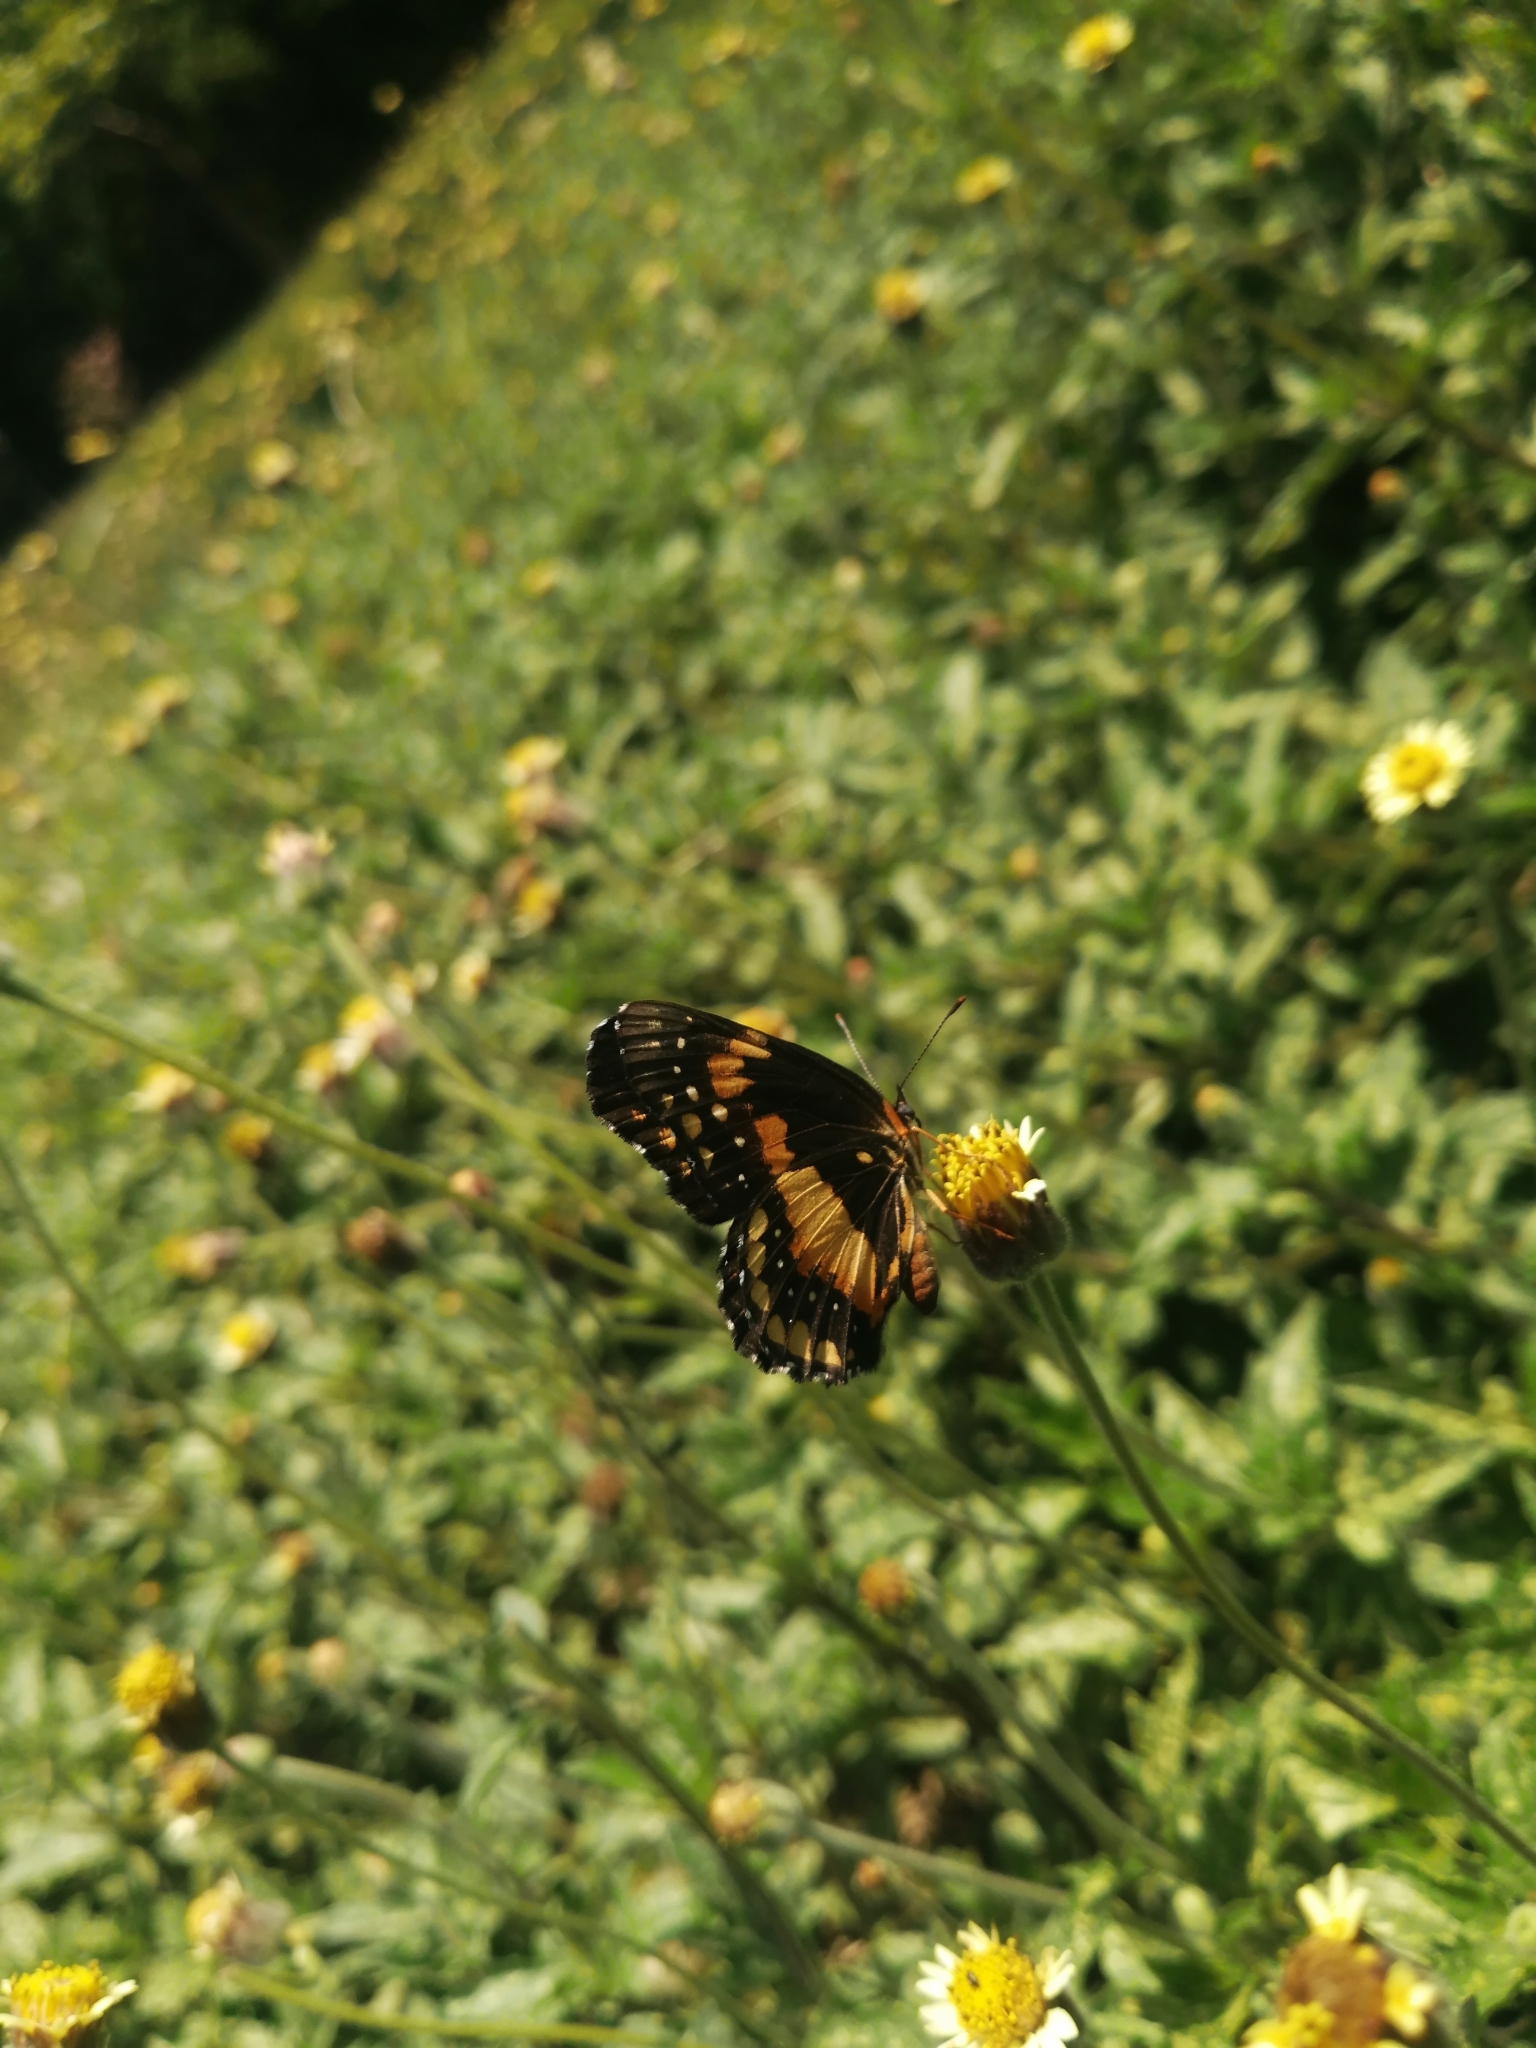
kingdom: Animalia
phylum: Arthropoda
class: Insecta
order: Lepidoptera
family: Nymphalidae
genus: Chlosyne
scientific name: Chlosyne lacinia
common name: Bordered patch
